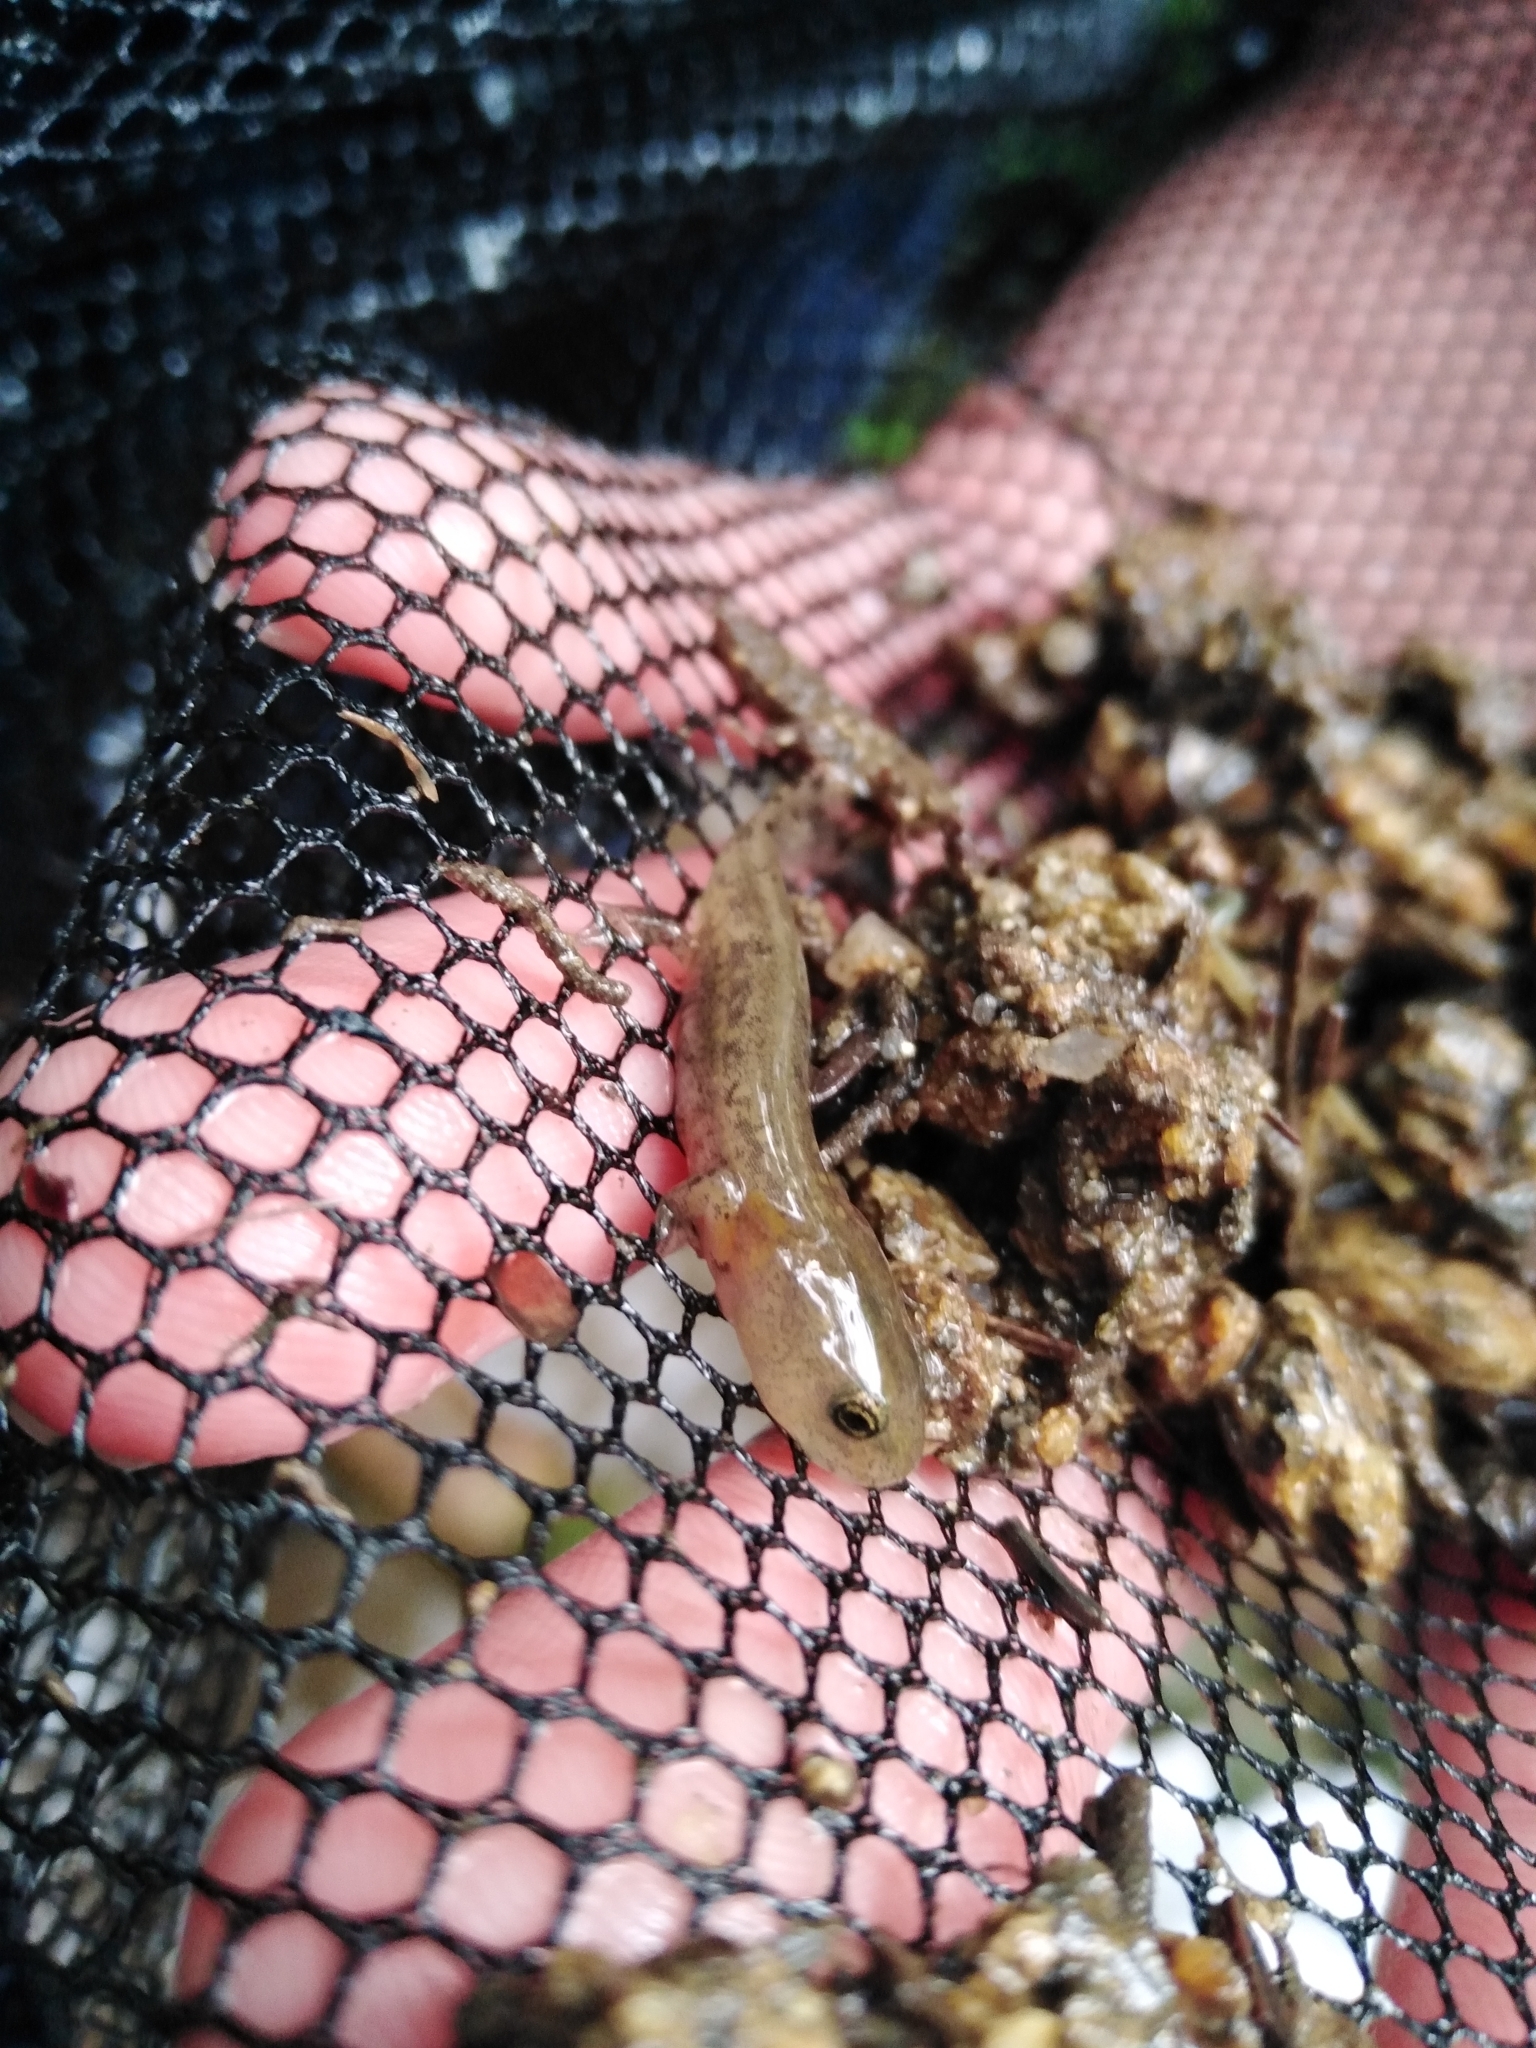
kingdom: Animalia
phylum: Chordata
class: Amphibia
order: Caudata
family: Salamandridae
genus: Salamandra
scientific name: Salamandra salamandra
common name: Fire salamander
